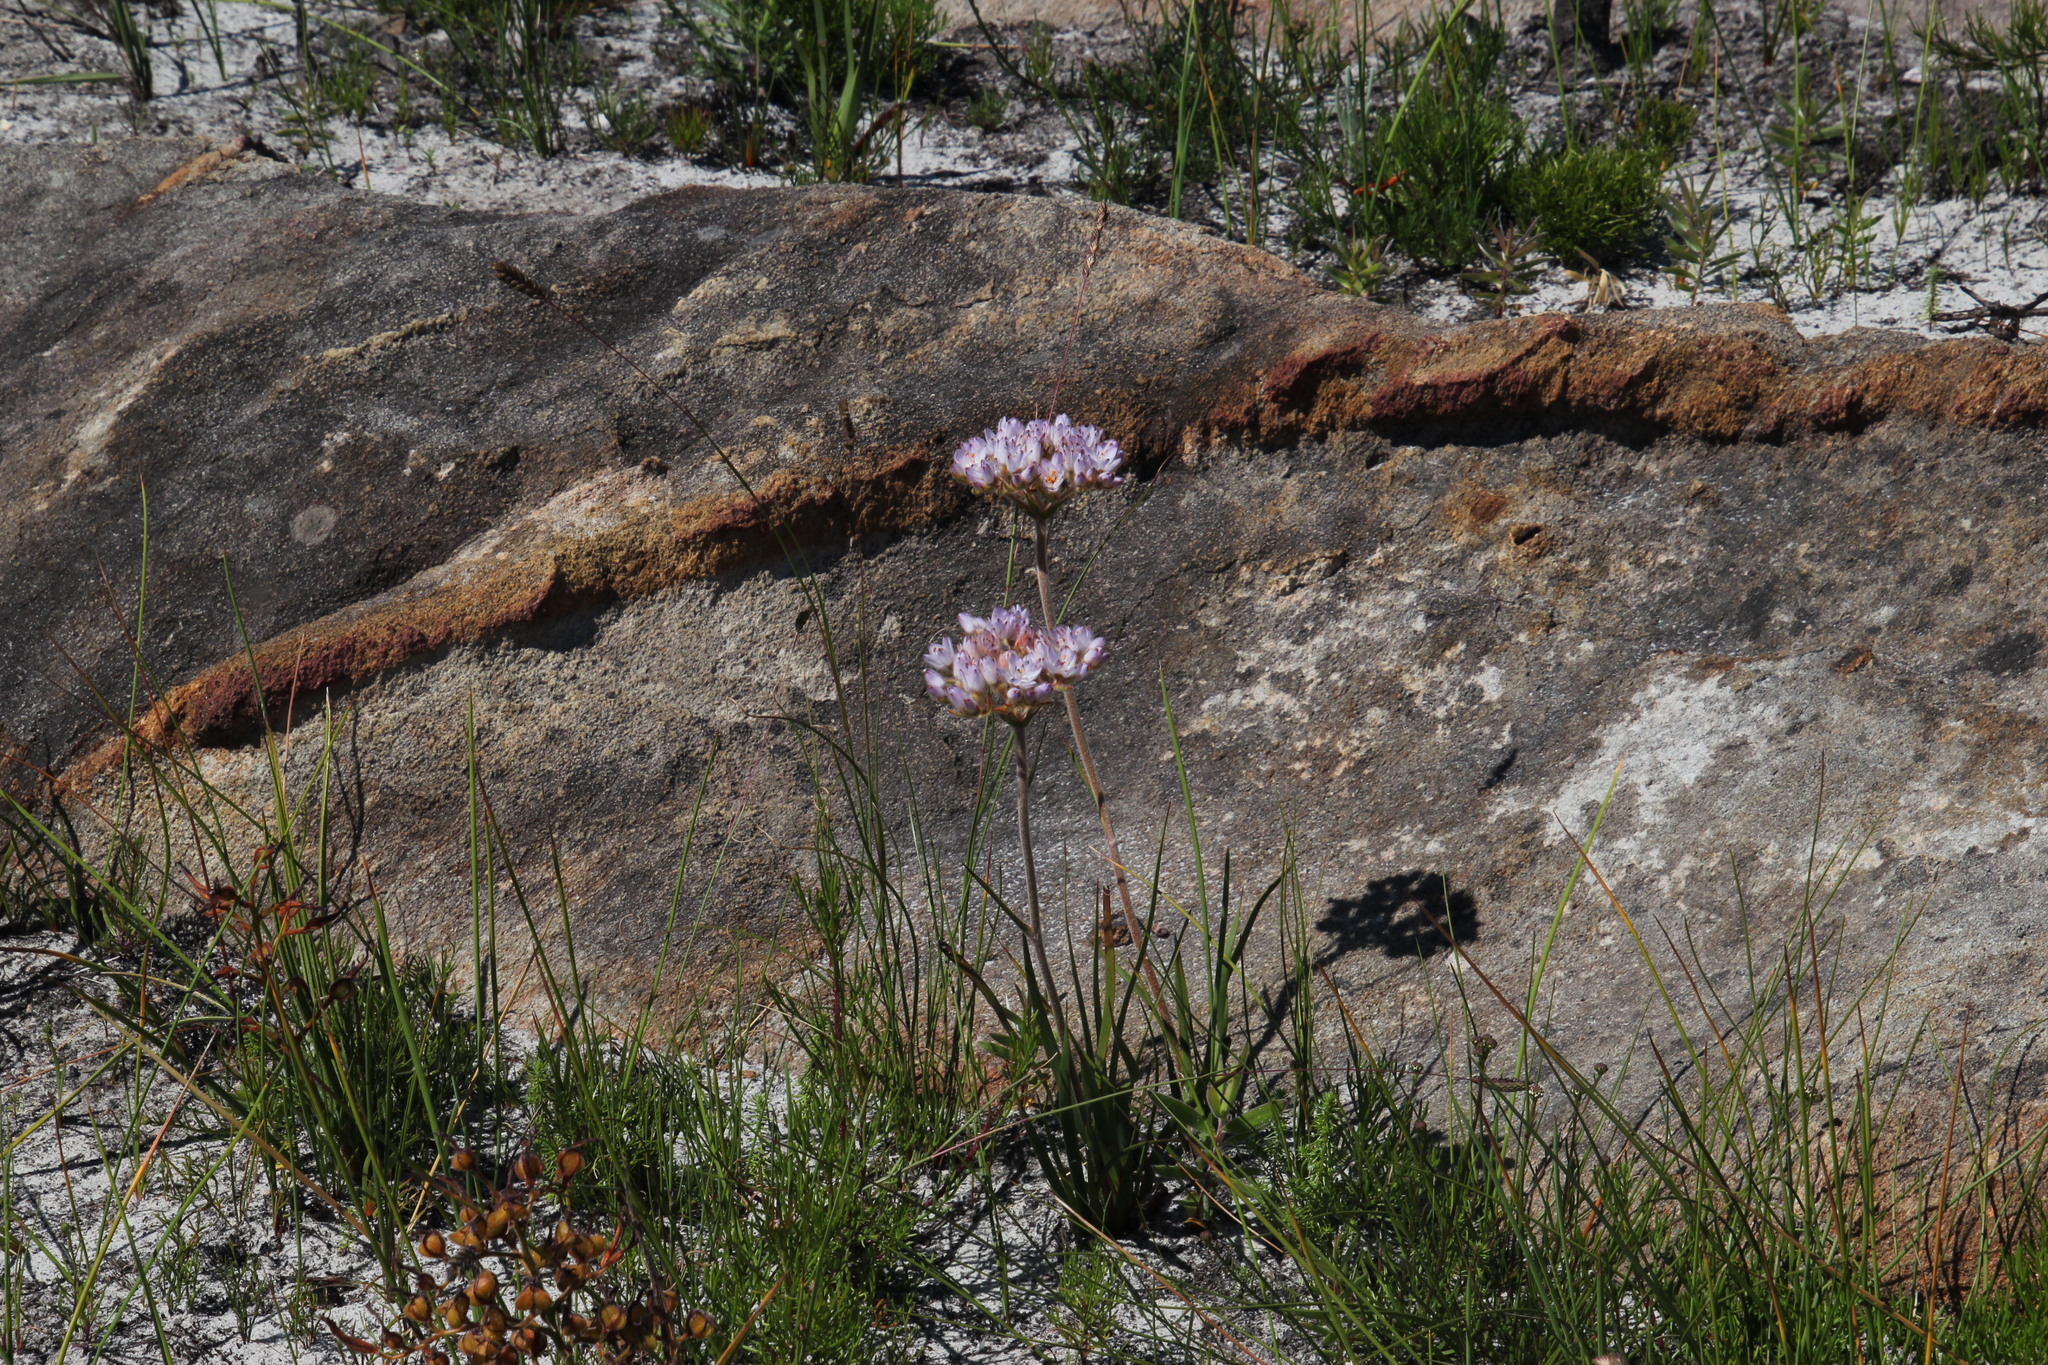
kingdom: Plantae
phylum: Tracheophyta
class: Liliopsida
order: Commelinales
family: Haemodoraceae
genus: Dilatris
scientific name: Dilatris pillansii
